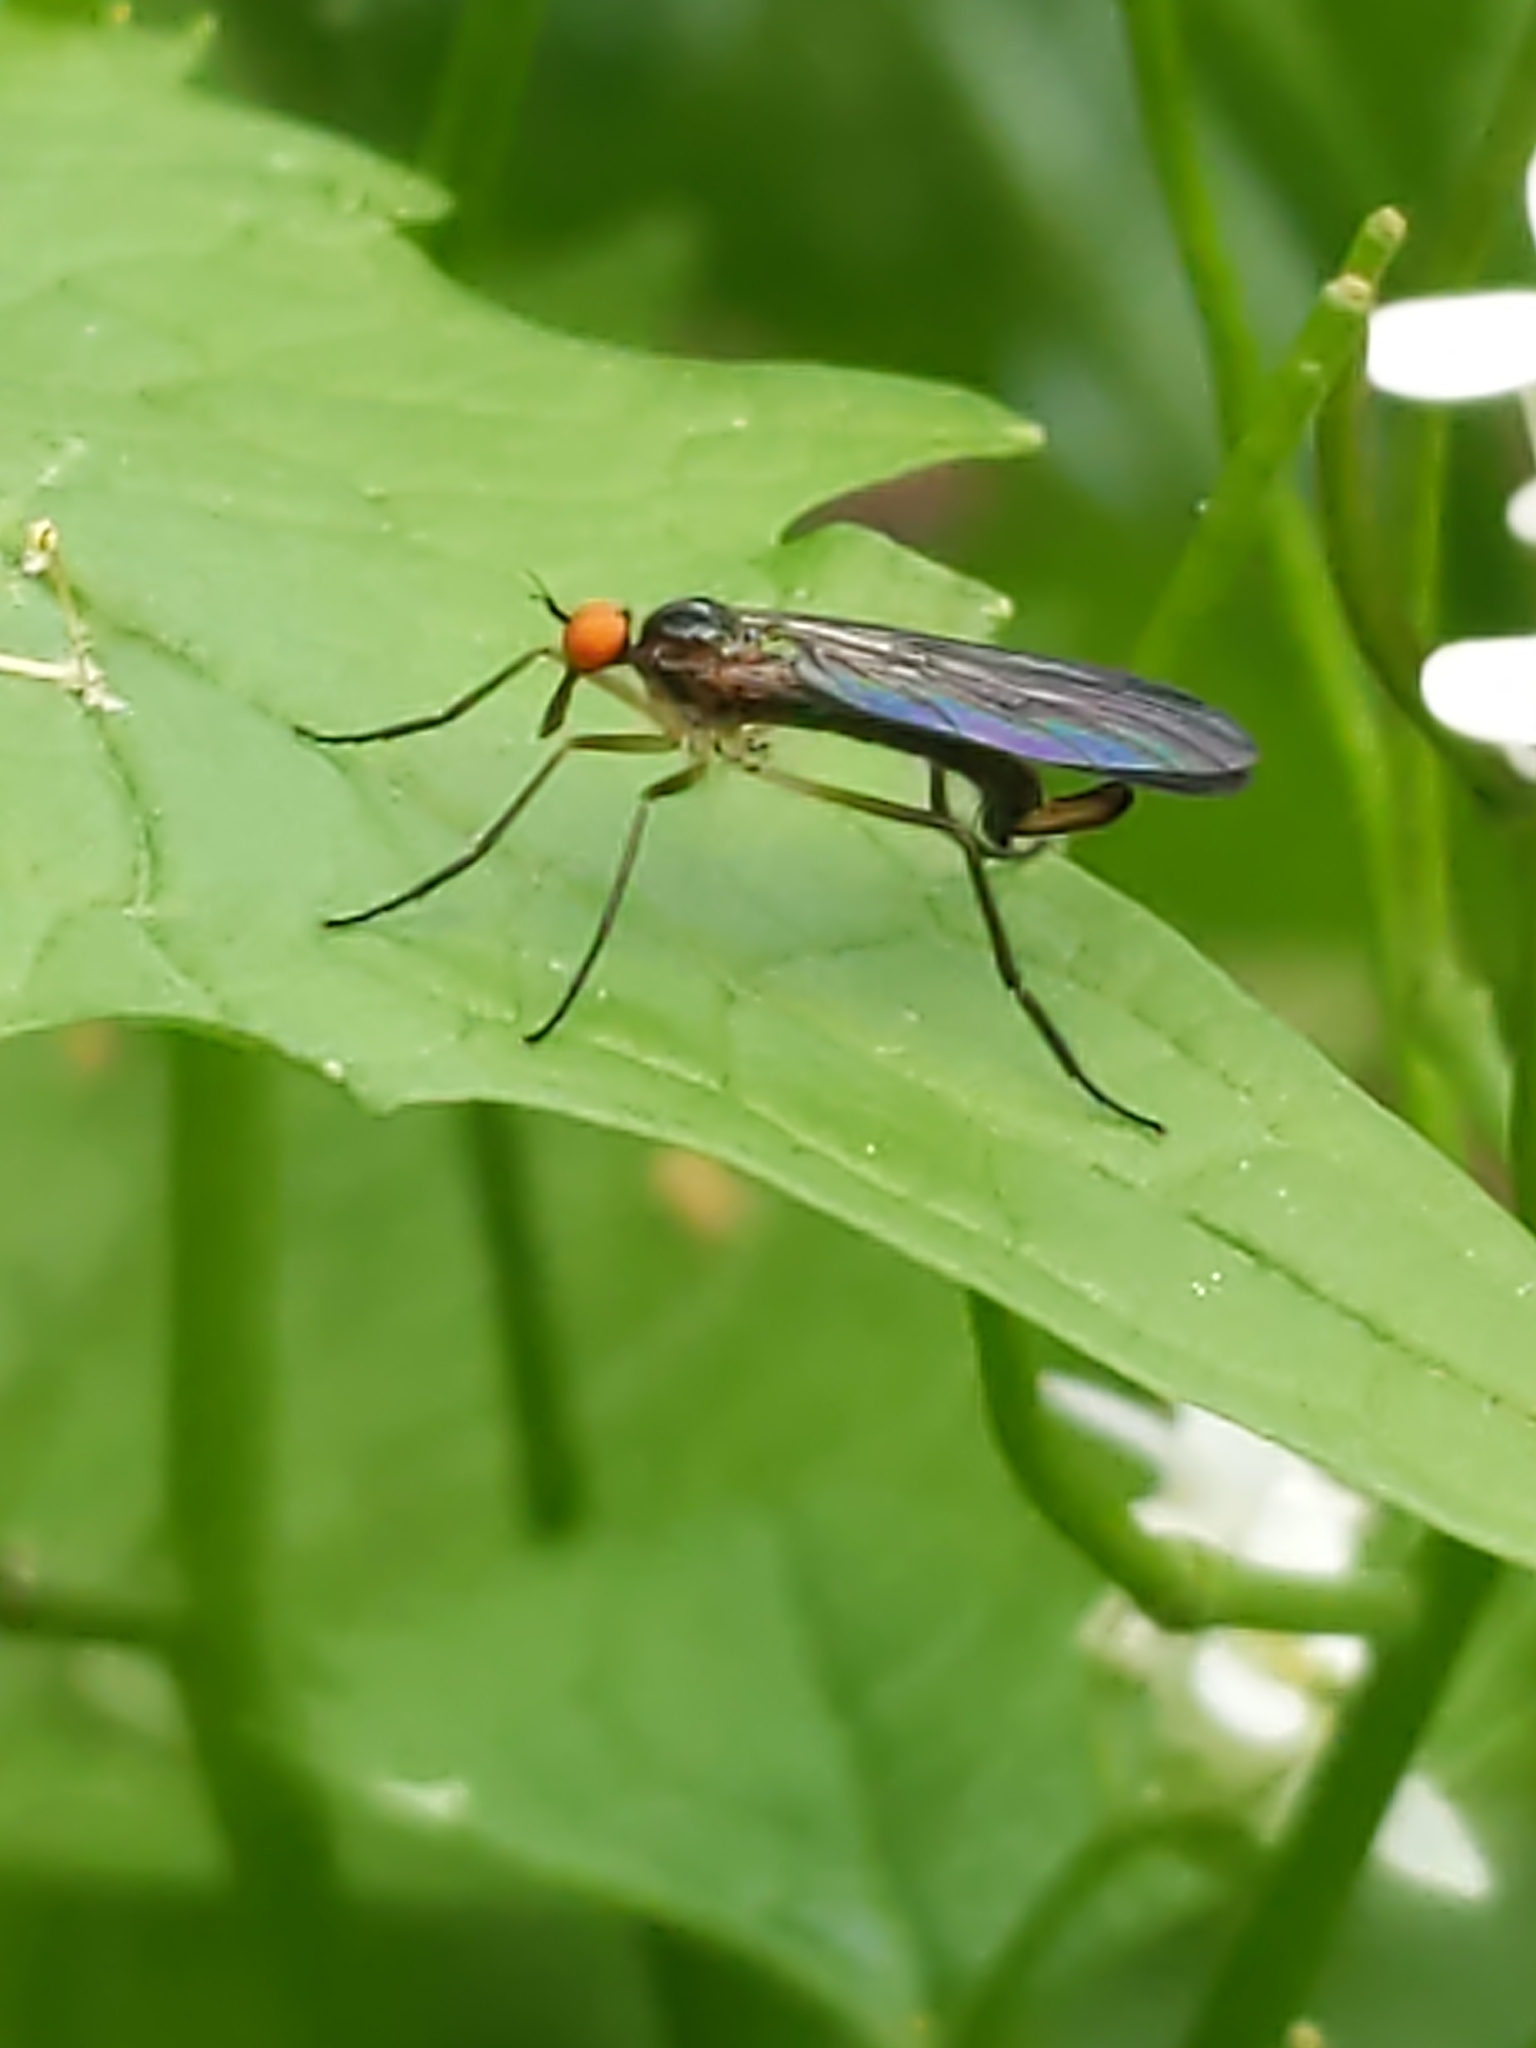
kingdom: Animalia
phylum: Arthropoda
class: Insecta
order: Diptera
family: Empididae
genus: Rhamphomyia
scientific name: Rhamphomyia longicauda
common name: Long-tailed dance fly
